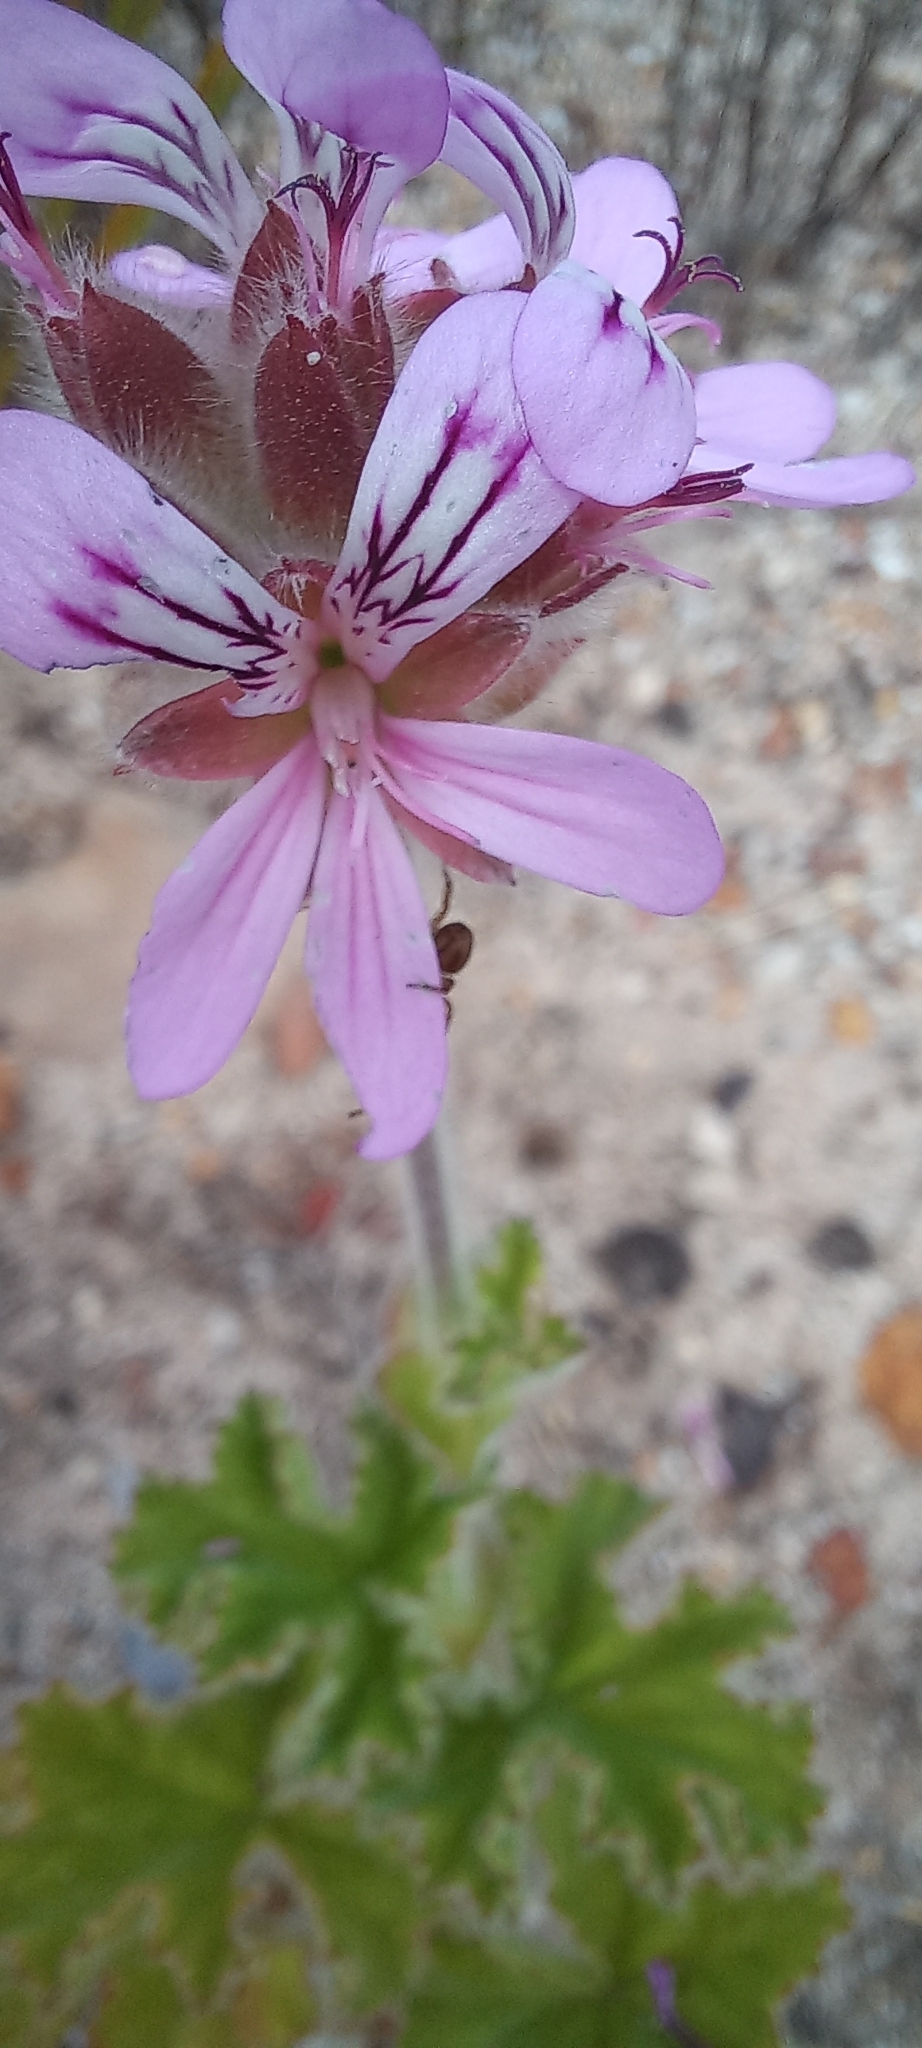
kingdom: Plantae
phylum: Tracheophyta
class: Magnoliopsida
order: Geraniales
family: Geraniaceae
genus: Pelargonium
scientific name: Pelargonium capitatum
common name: Rose scented geranium
